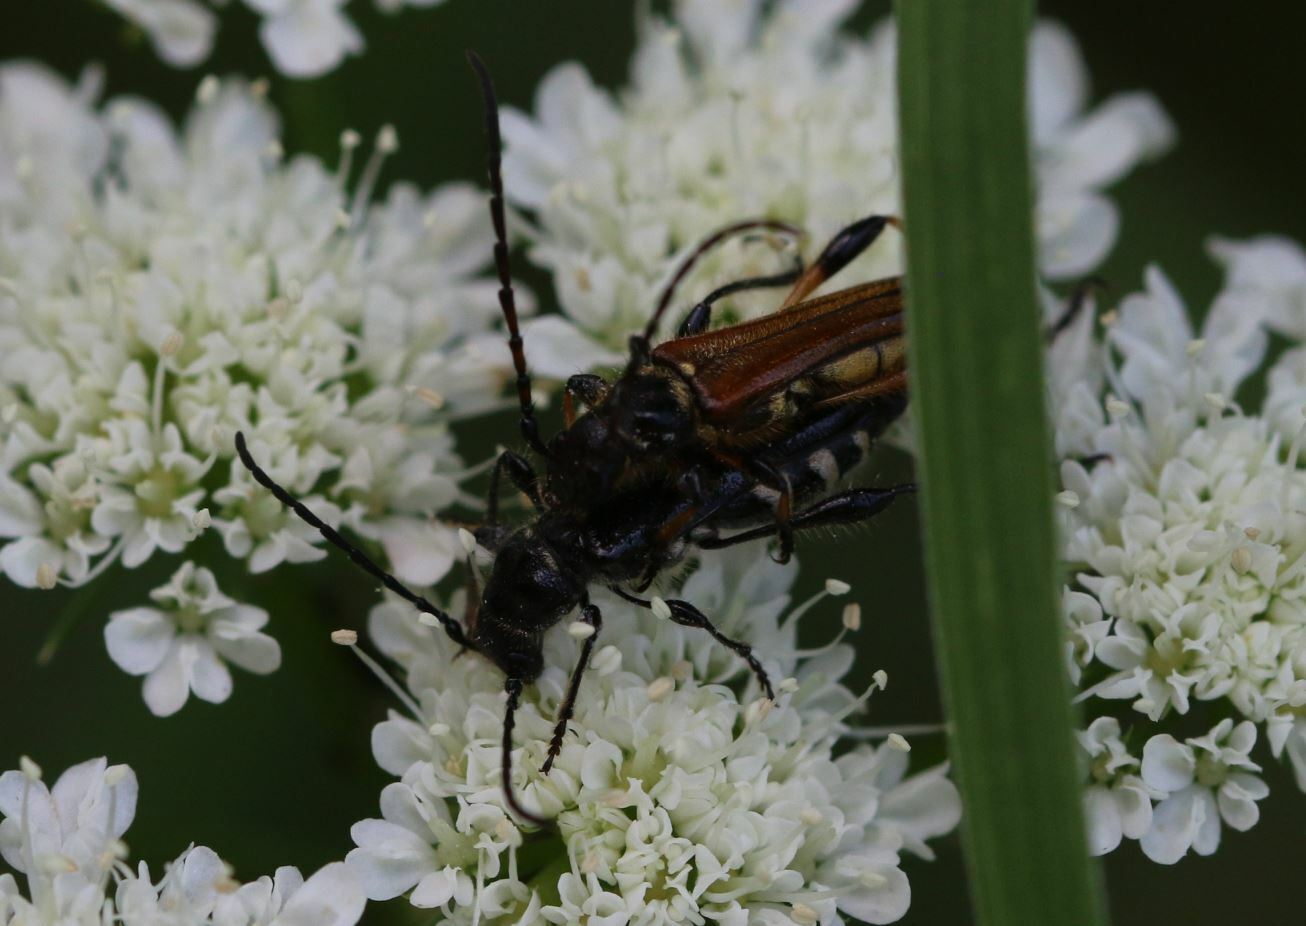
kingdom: Animalia
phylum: Arthropoda
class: Insecta
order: Coleoptera
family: Cerambycidae
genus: Stenopterus
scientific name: Stenopterus ater
